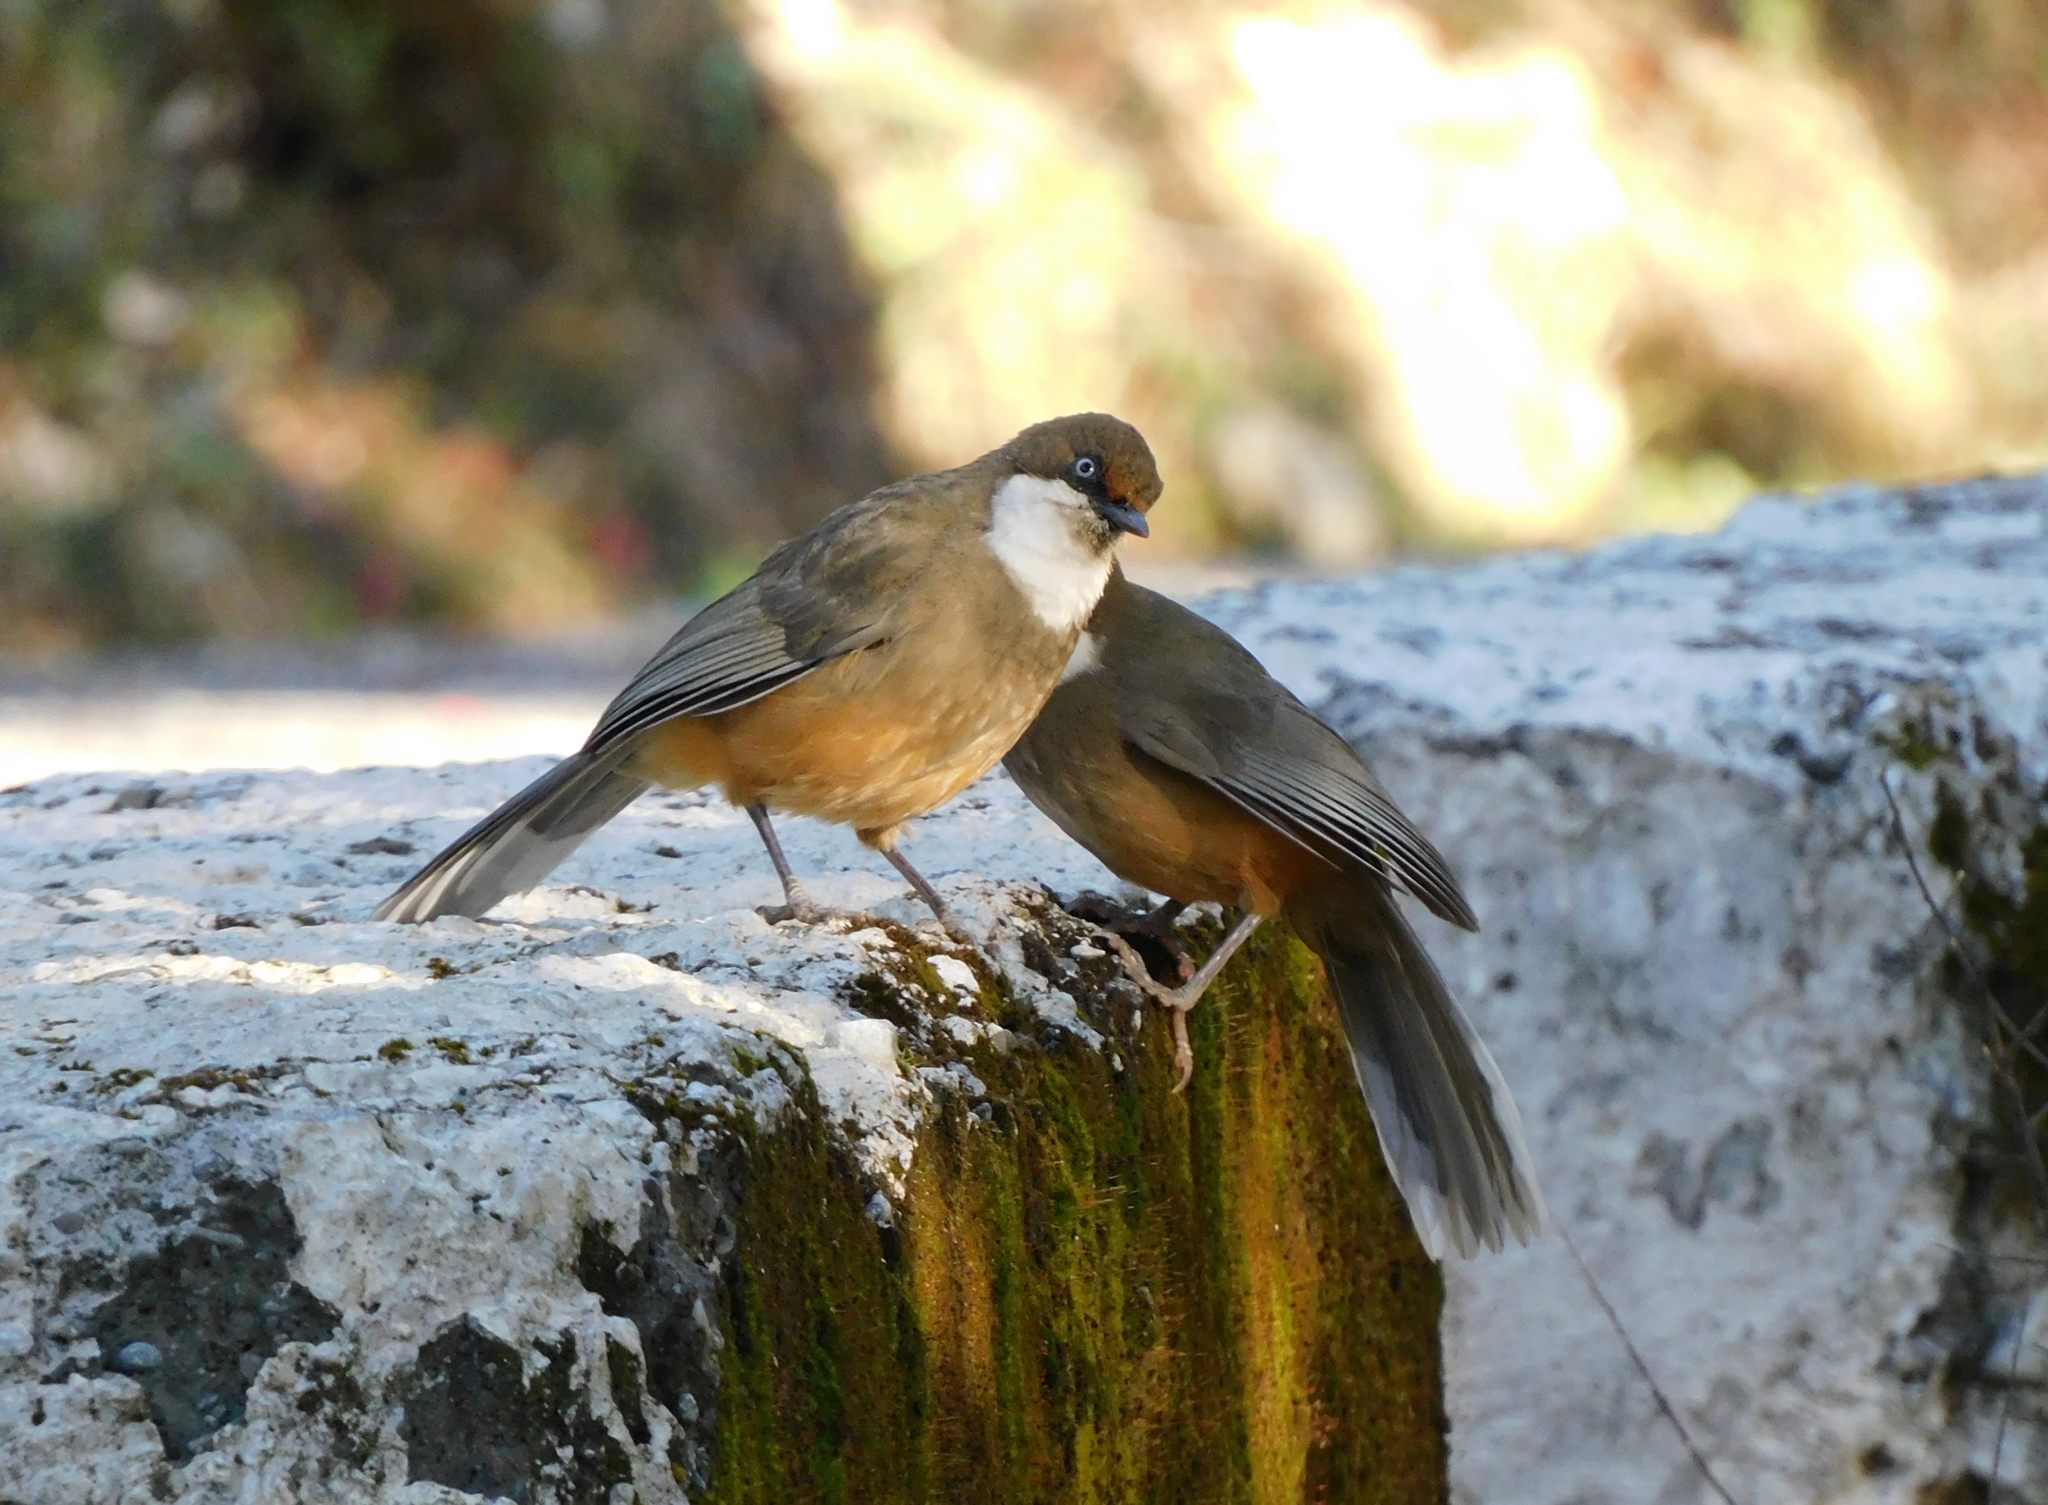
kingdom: Animalia
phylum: Chordata
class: Aves
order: Passeriformes
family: Leiothrichidae
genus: Garrulax
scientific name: Garrulax albogularis
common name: White-throated laughingthrush
